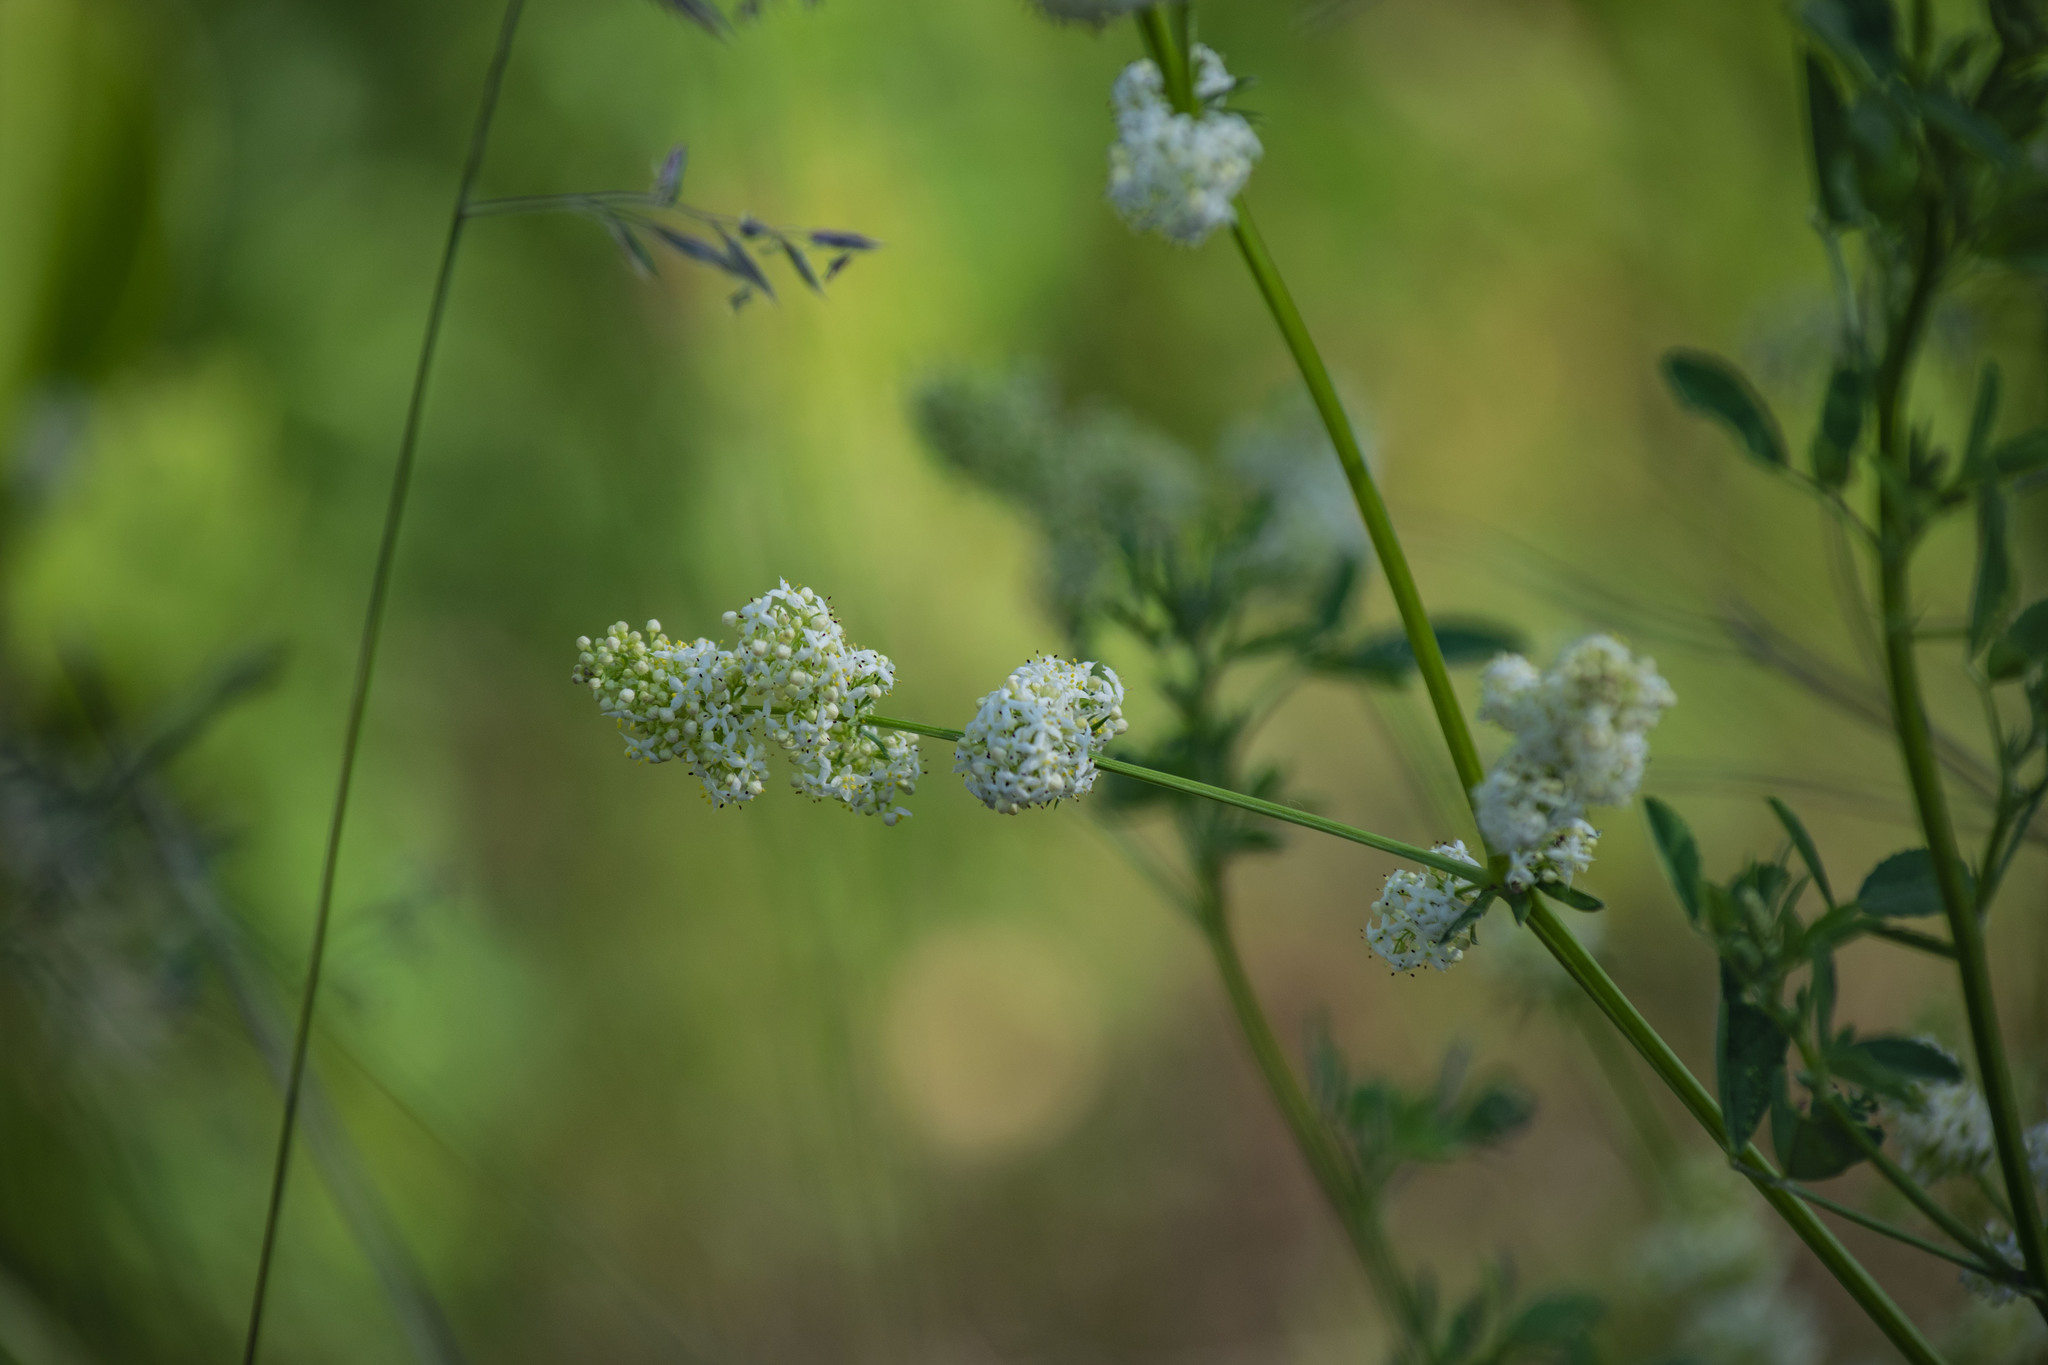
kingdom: Plantae
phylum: Tracheophyta
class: Magnoliopsida
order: Gentianales
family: Rubiaceae
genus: Galium
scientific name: Galium mollugo
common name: Hedge bedstraw
